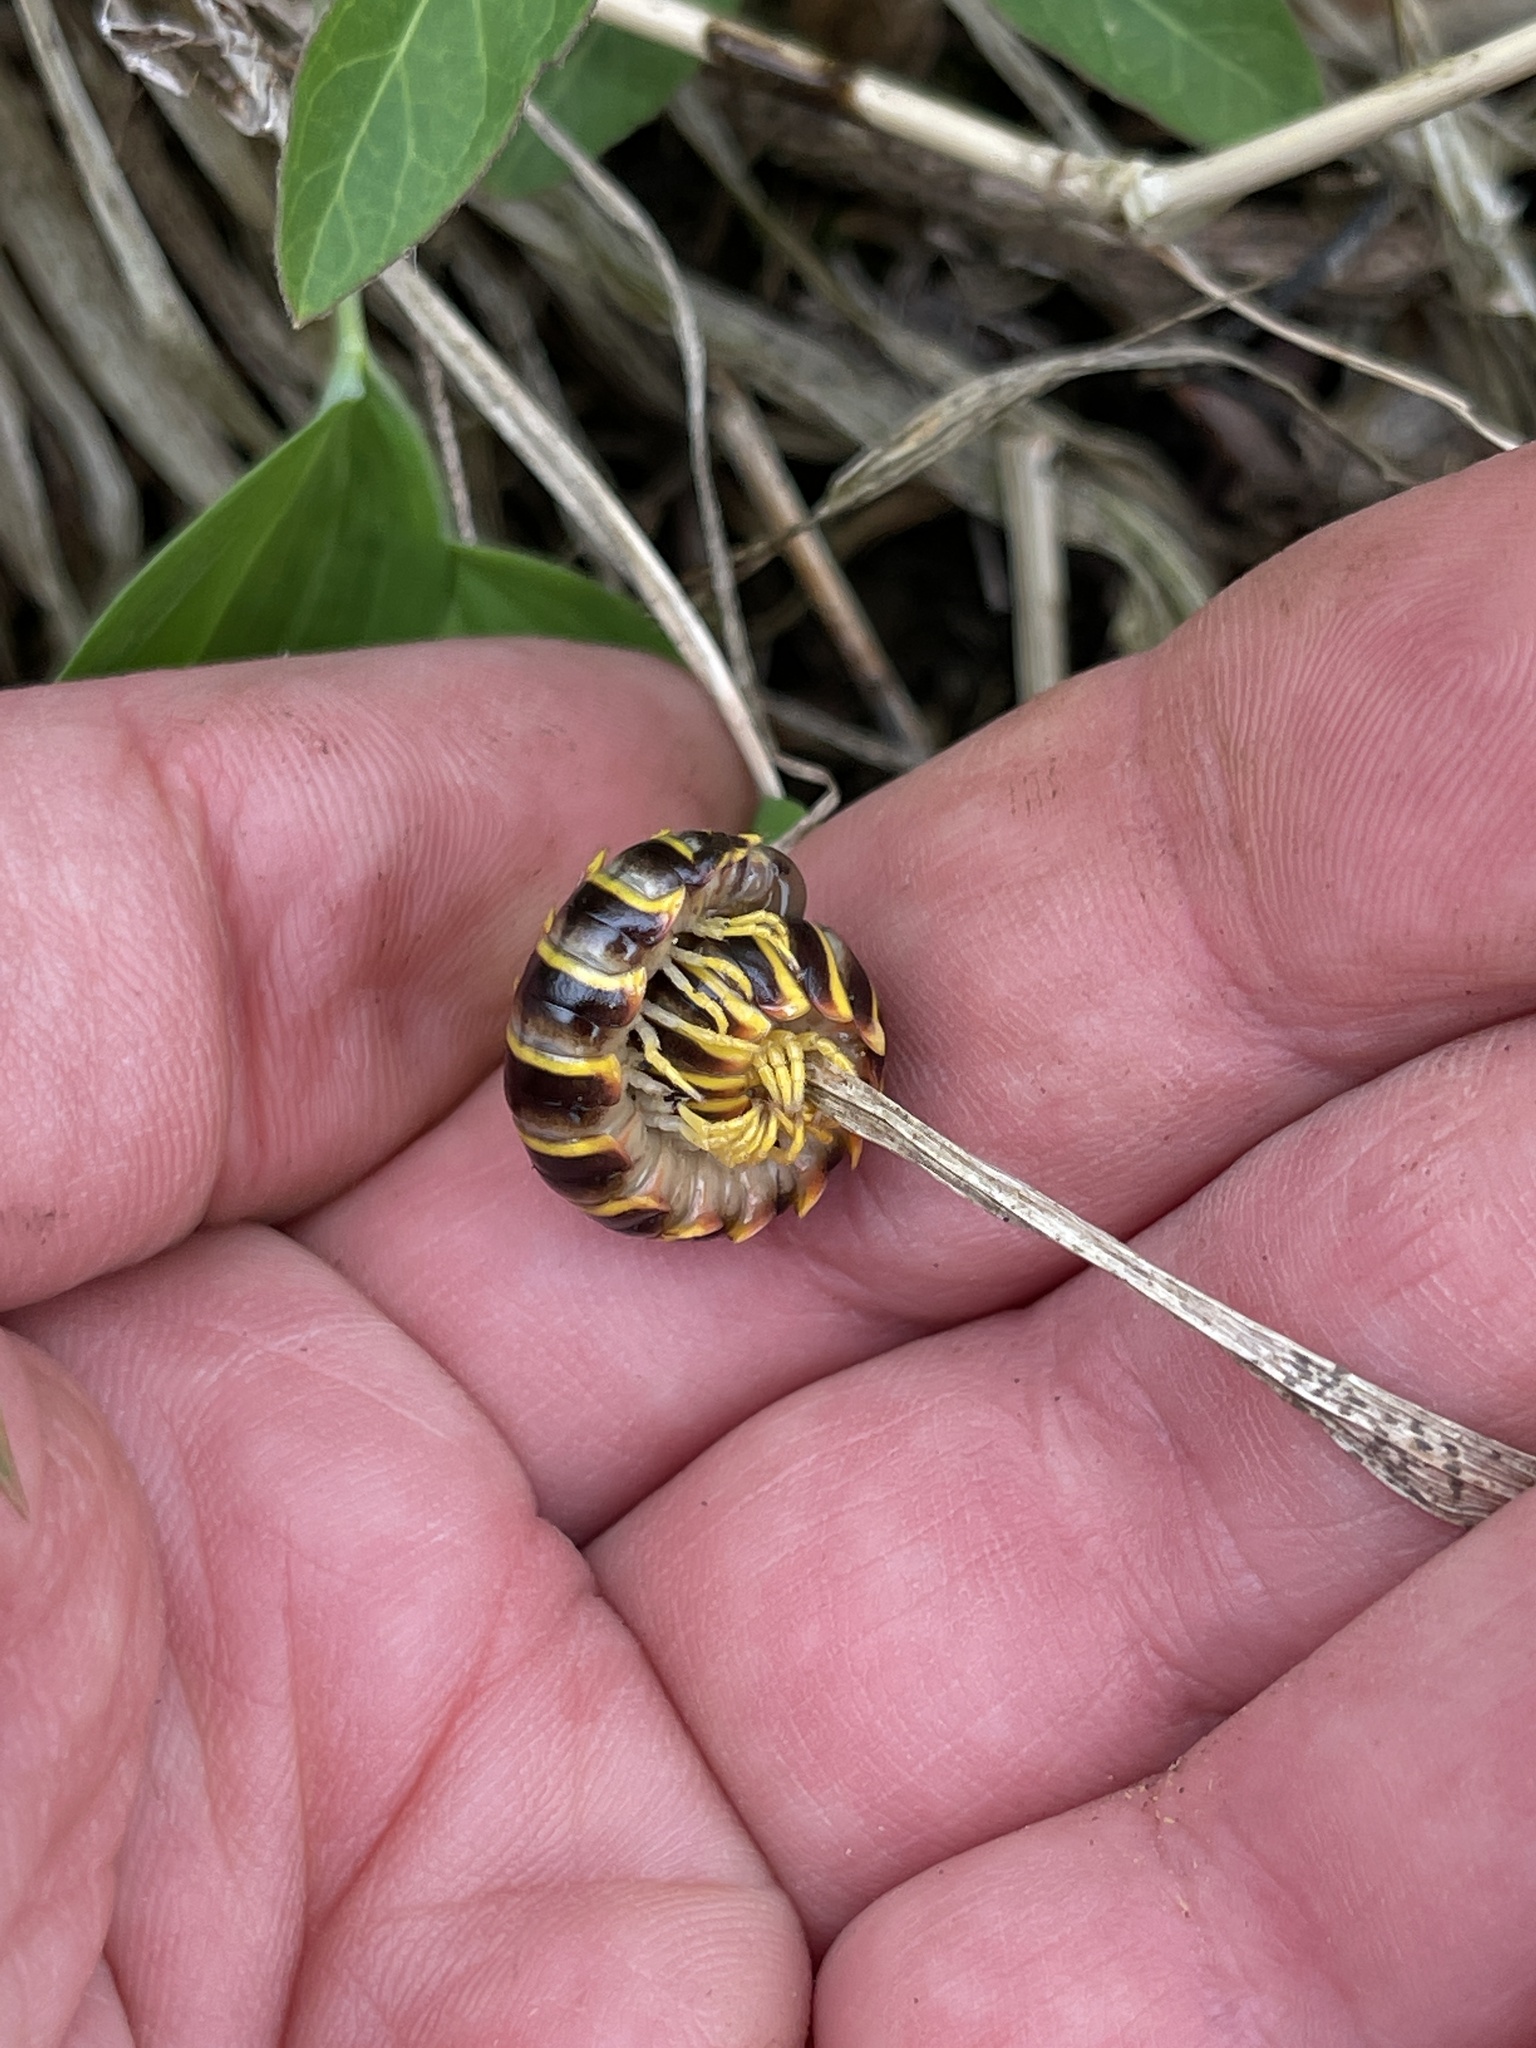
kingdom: Animalia
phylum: Arthropoda
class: Diplopoda
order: Polydesmida
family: Xystodesmidae
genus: Apheloria
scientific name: Apheloria virginiensis
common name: Black-and-gold flat millipede
